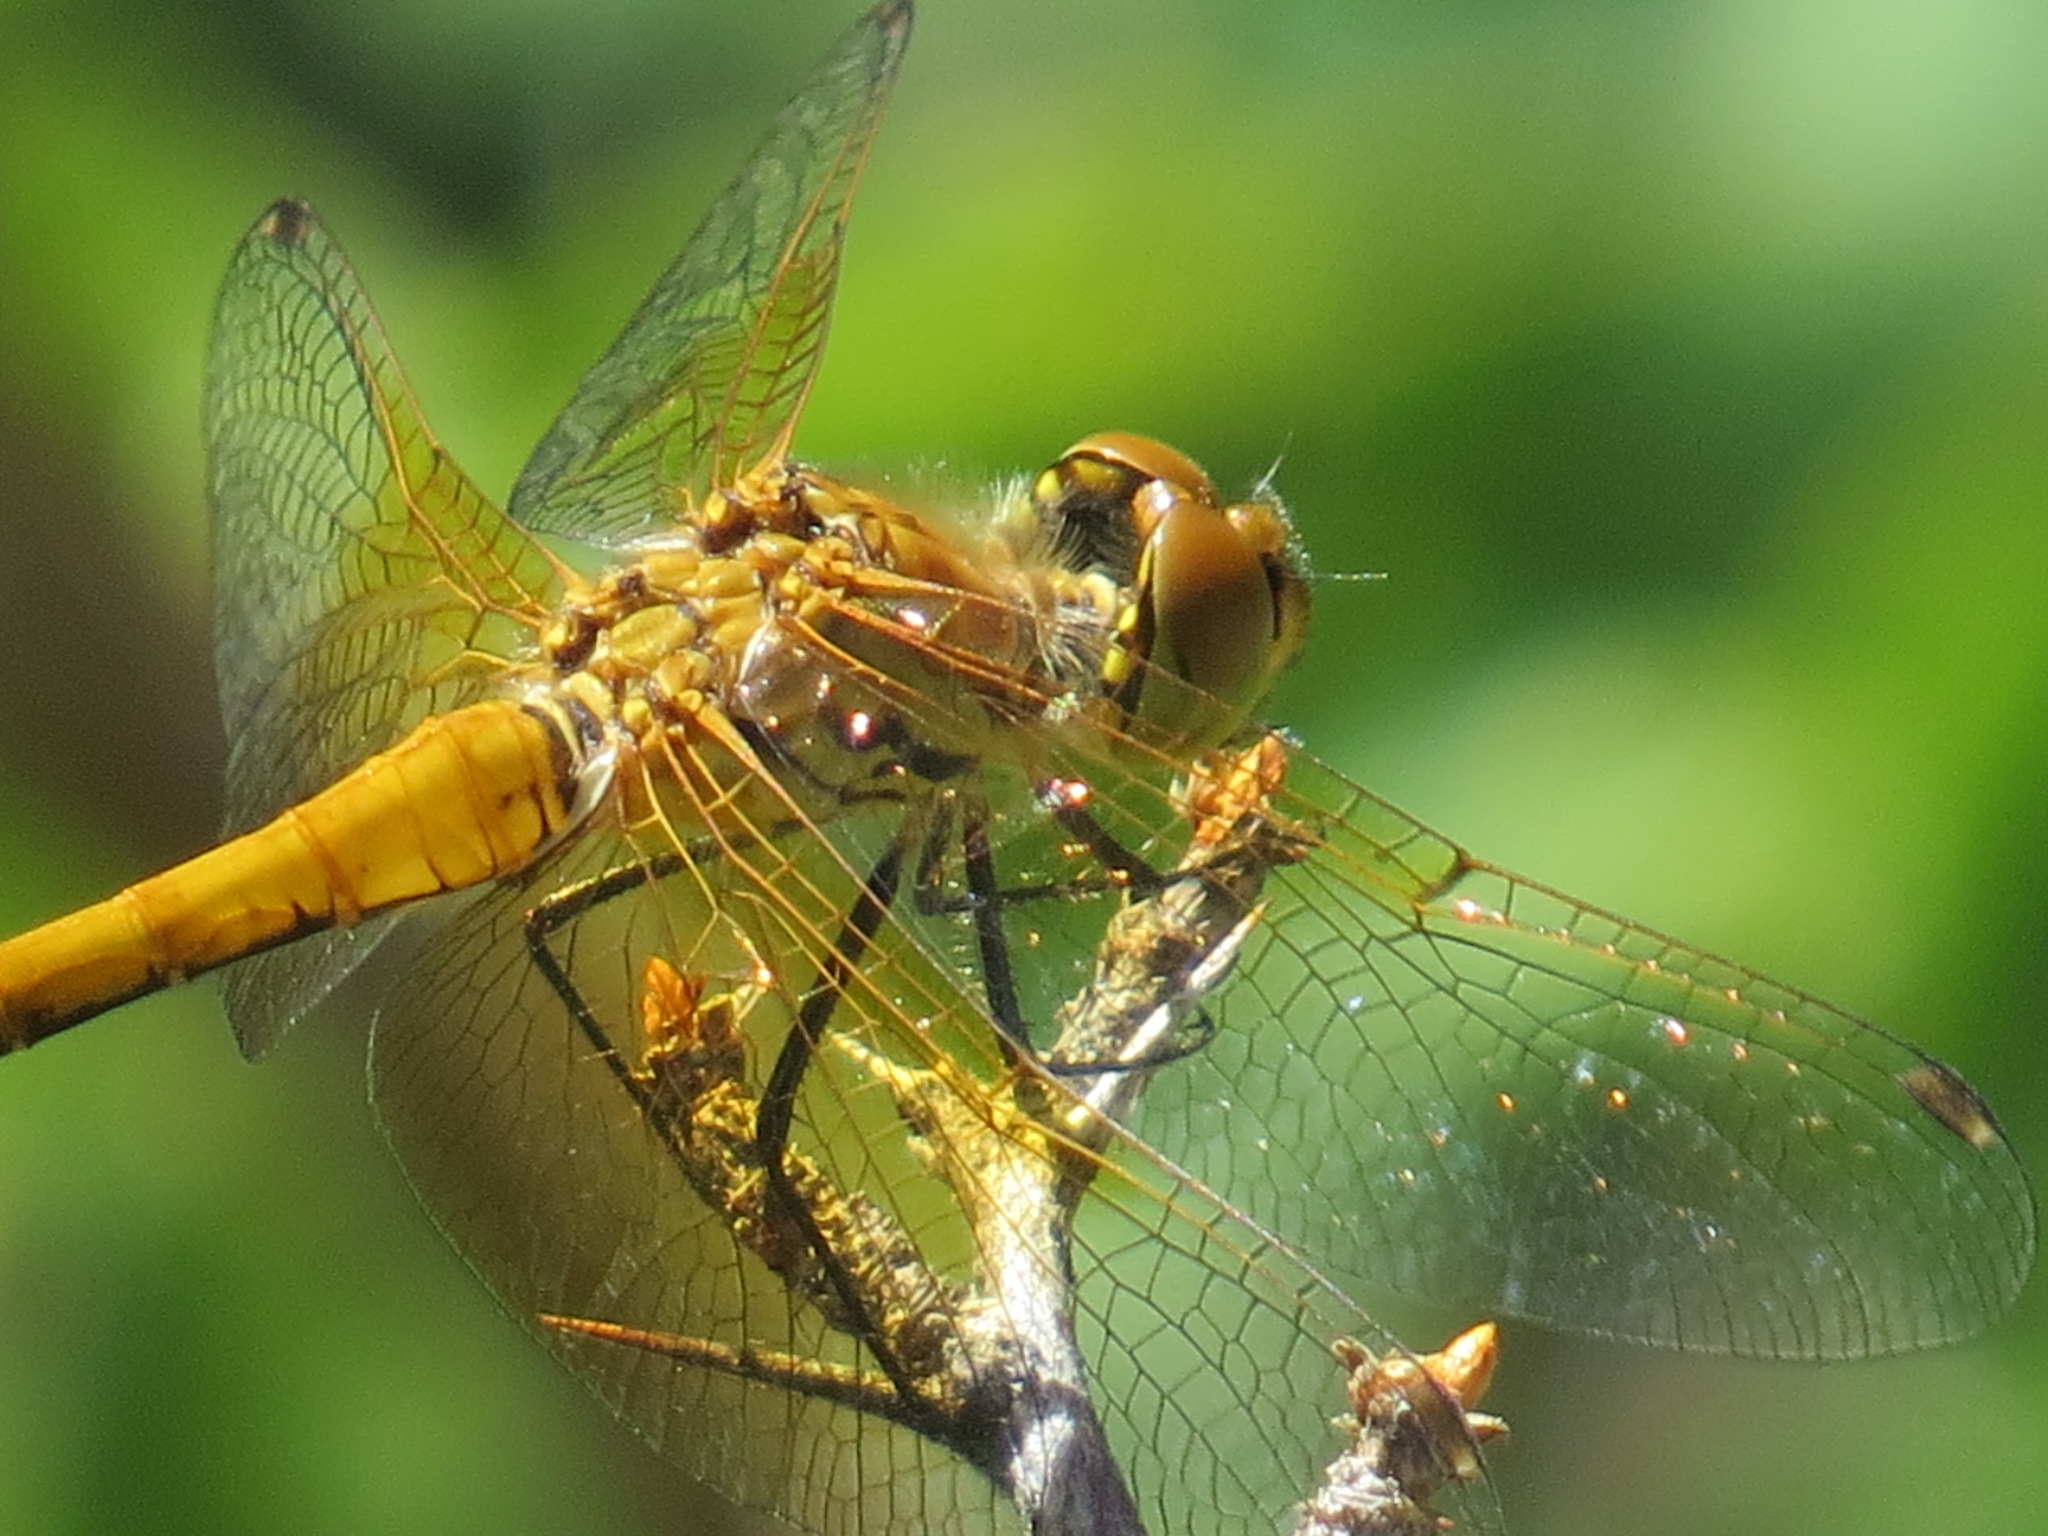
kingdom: Animalia
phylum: Arthropoda
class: Insecta
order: Odonata
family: Libellulidae
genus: Sympetrum
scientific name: Sympetrum semicinctum
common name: Band-winged meadowhawk
